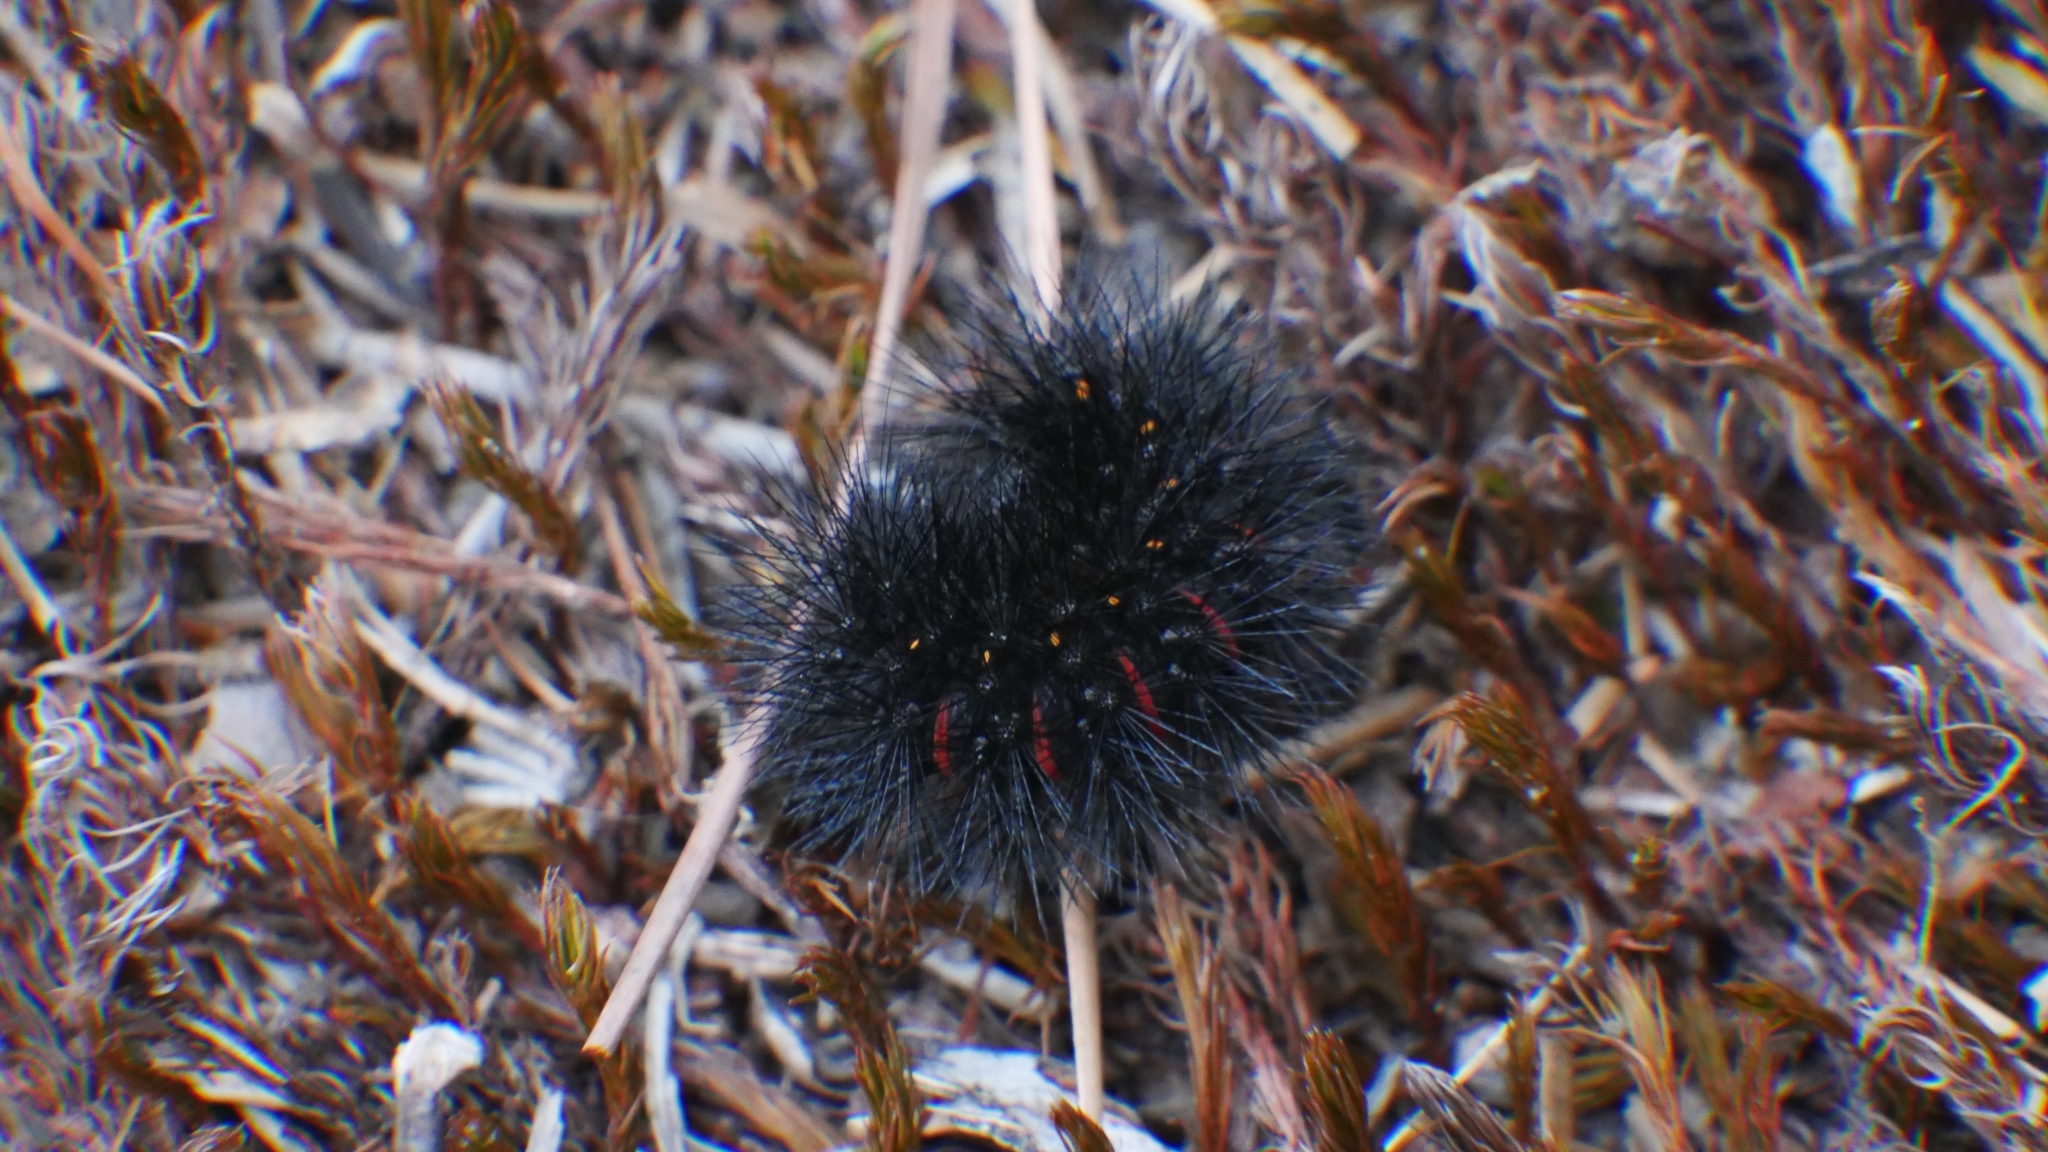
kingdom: Animalia
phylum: Arthropoda
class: Insecta
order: Lepidoptera
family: Erebidae
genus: Hypercompe
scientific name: Hypercompe scribonia
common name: Giant leopard moth
